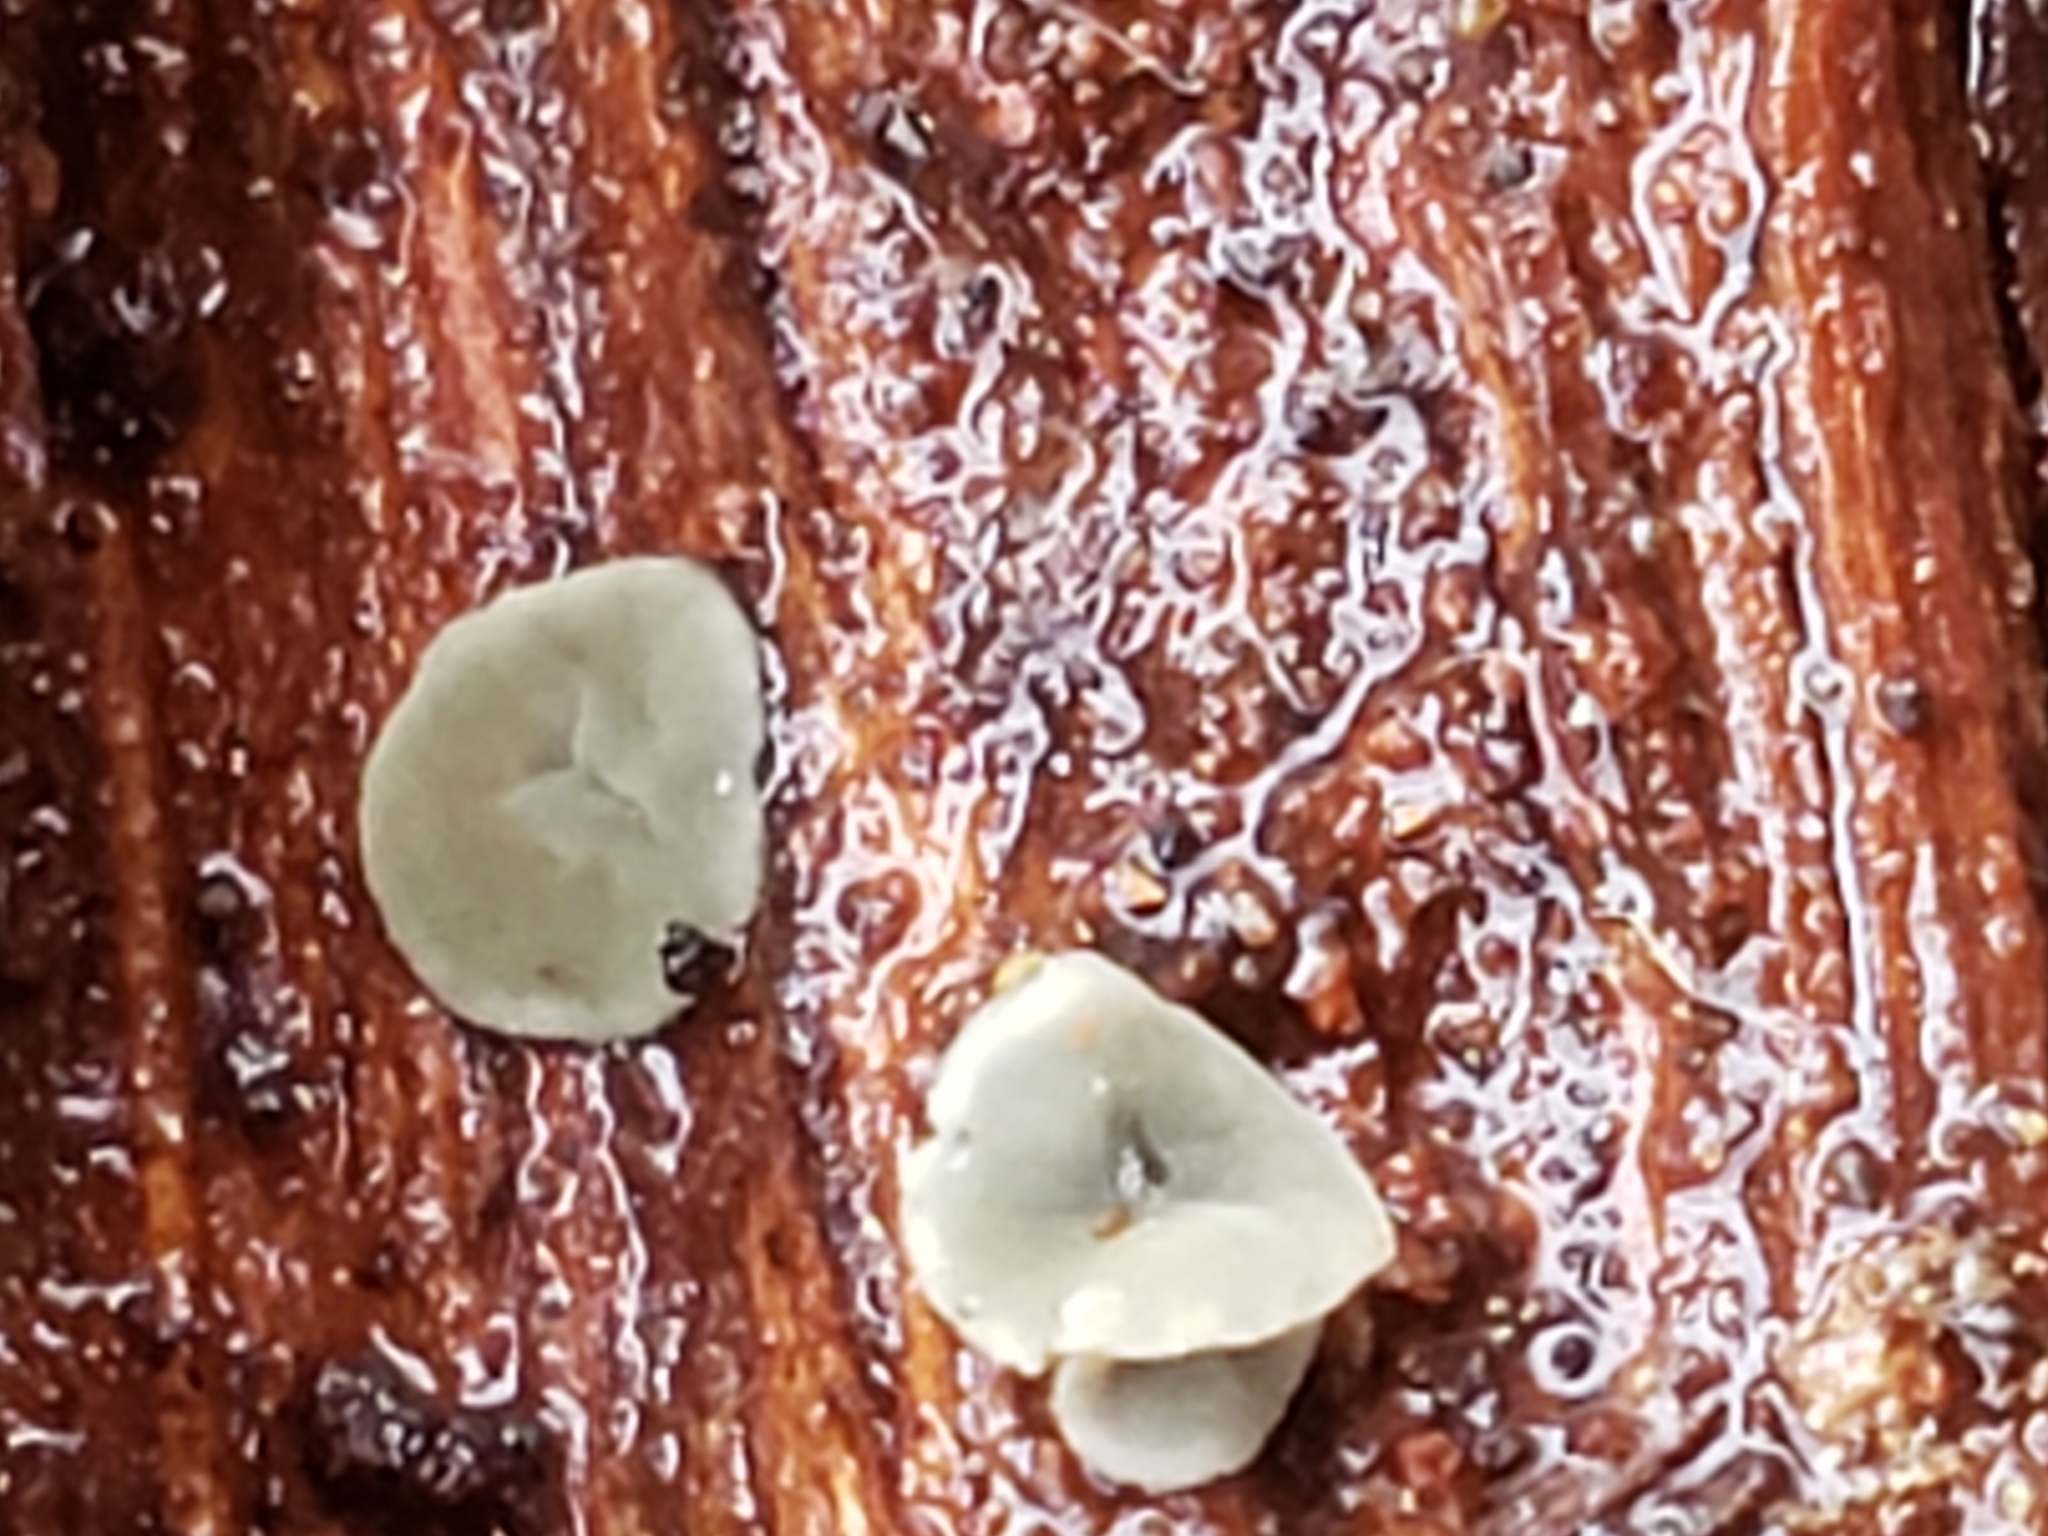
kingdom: Fungi
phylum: Ascomycota
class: Leotiomycetes
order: Helotiales
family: Chlorospleniaceae
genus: Chlorosplenium
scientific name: Chlorosplenium chlora
